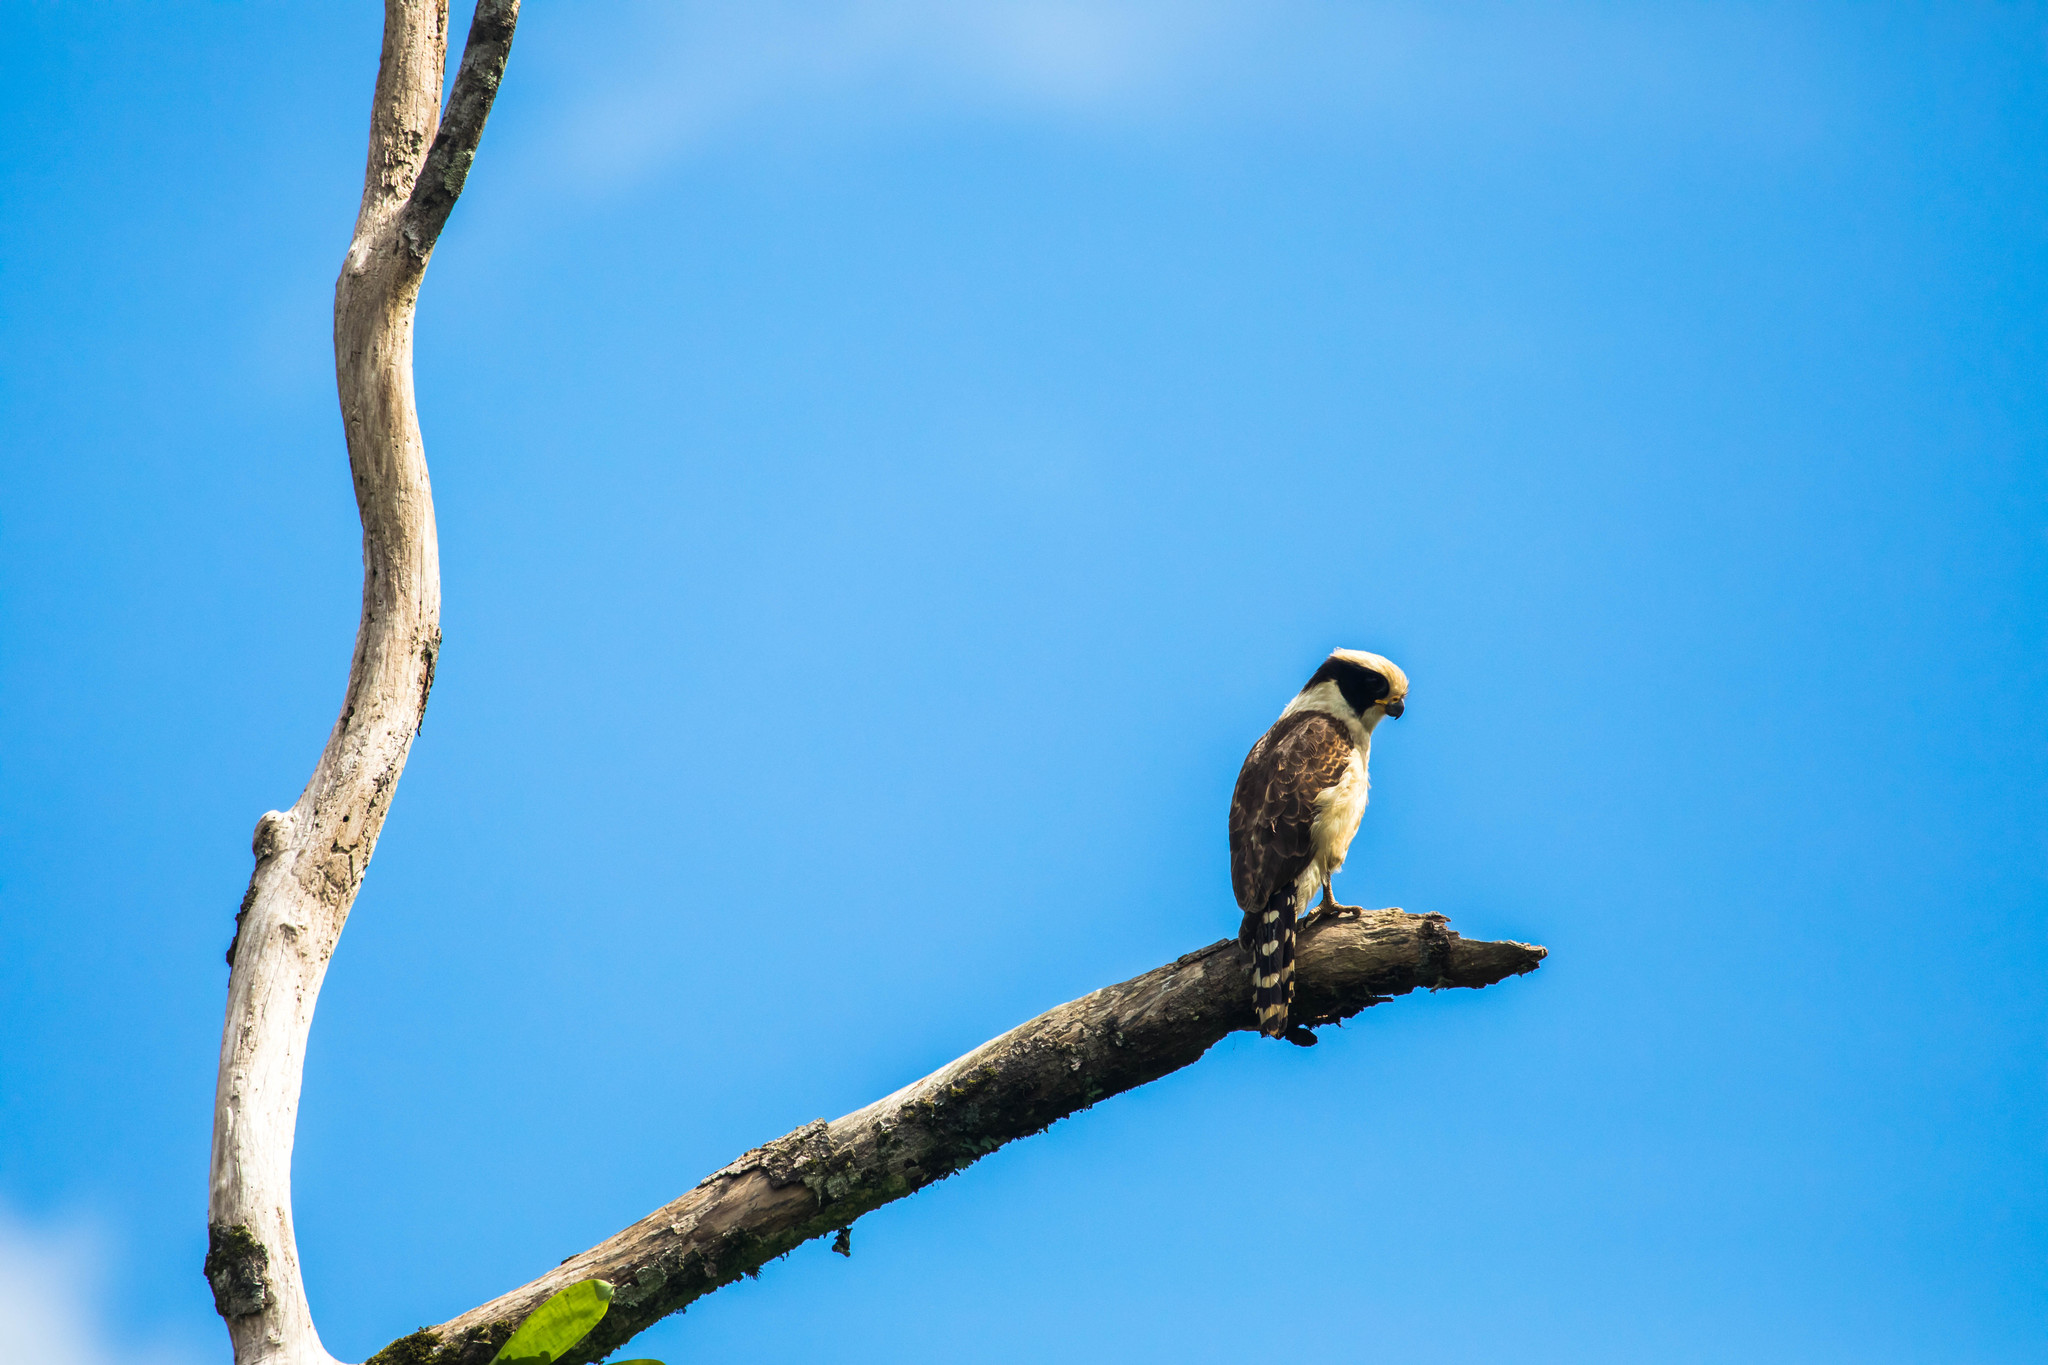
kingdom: Animalia
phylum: Chordata
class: Aves
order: Falconiformes
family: Falconidae
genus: Herpetotheres
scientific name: Herpetotheres cachinnans
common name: Laughing falcon
